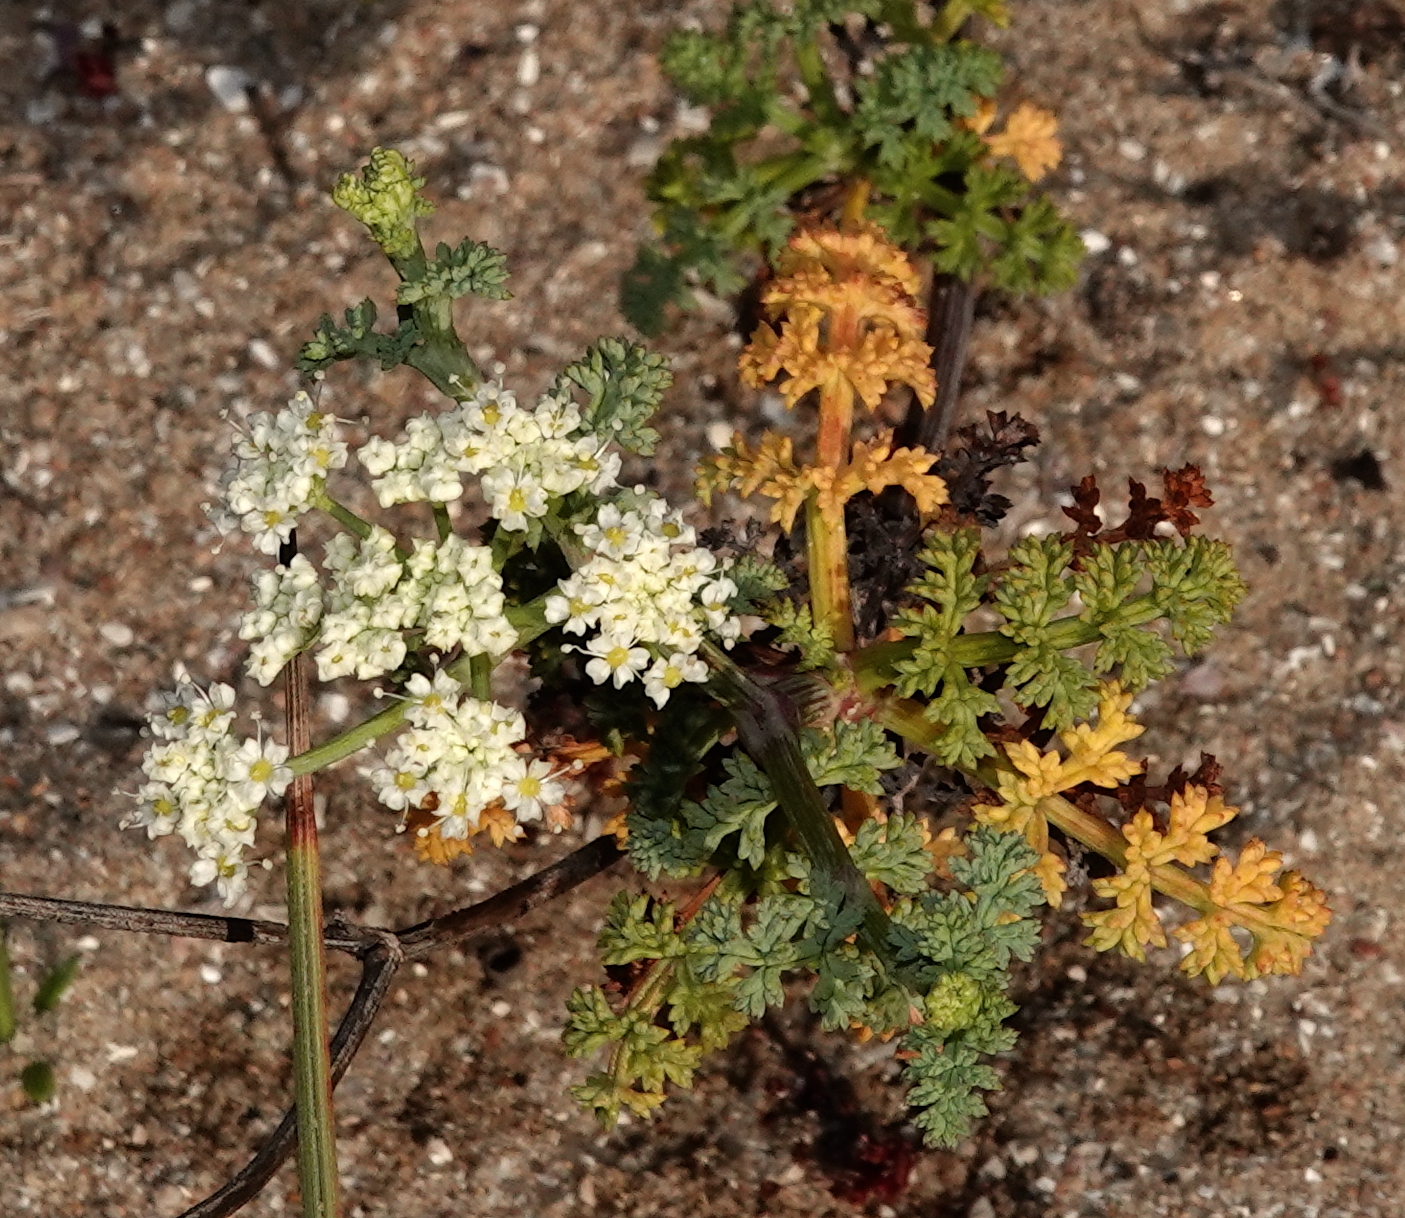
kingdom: Plantae
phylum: Tracheophyta
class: Magnoliopsida
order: Apiales
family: Apiaceae
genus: Dasispermum
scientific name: Dasispermum suffruticosum
